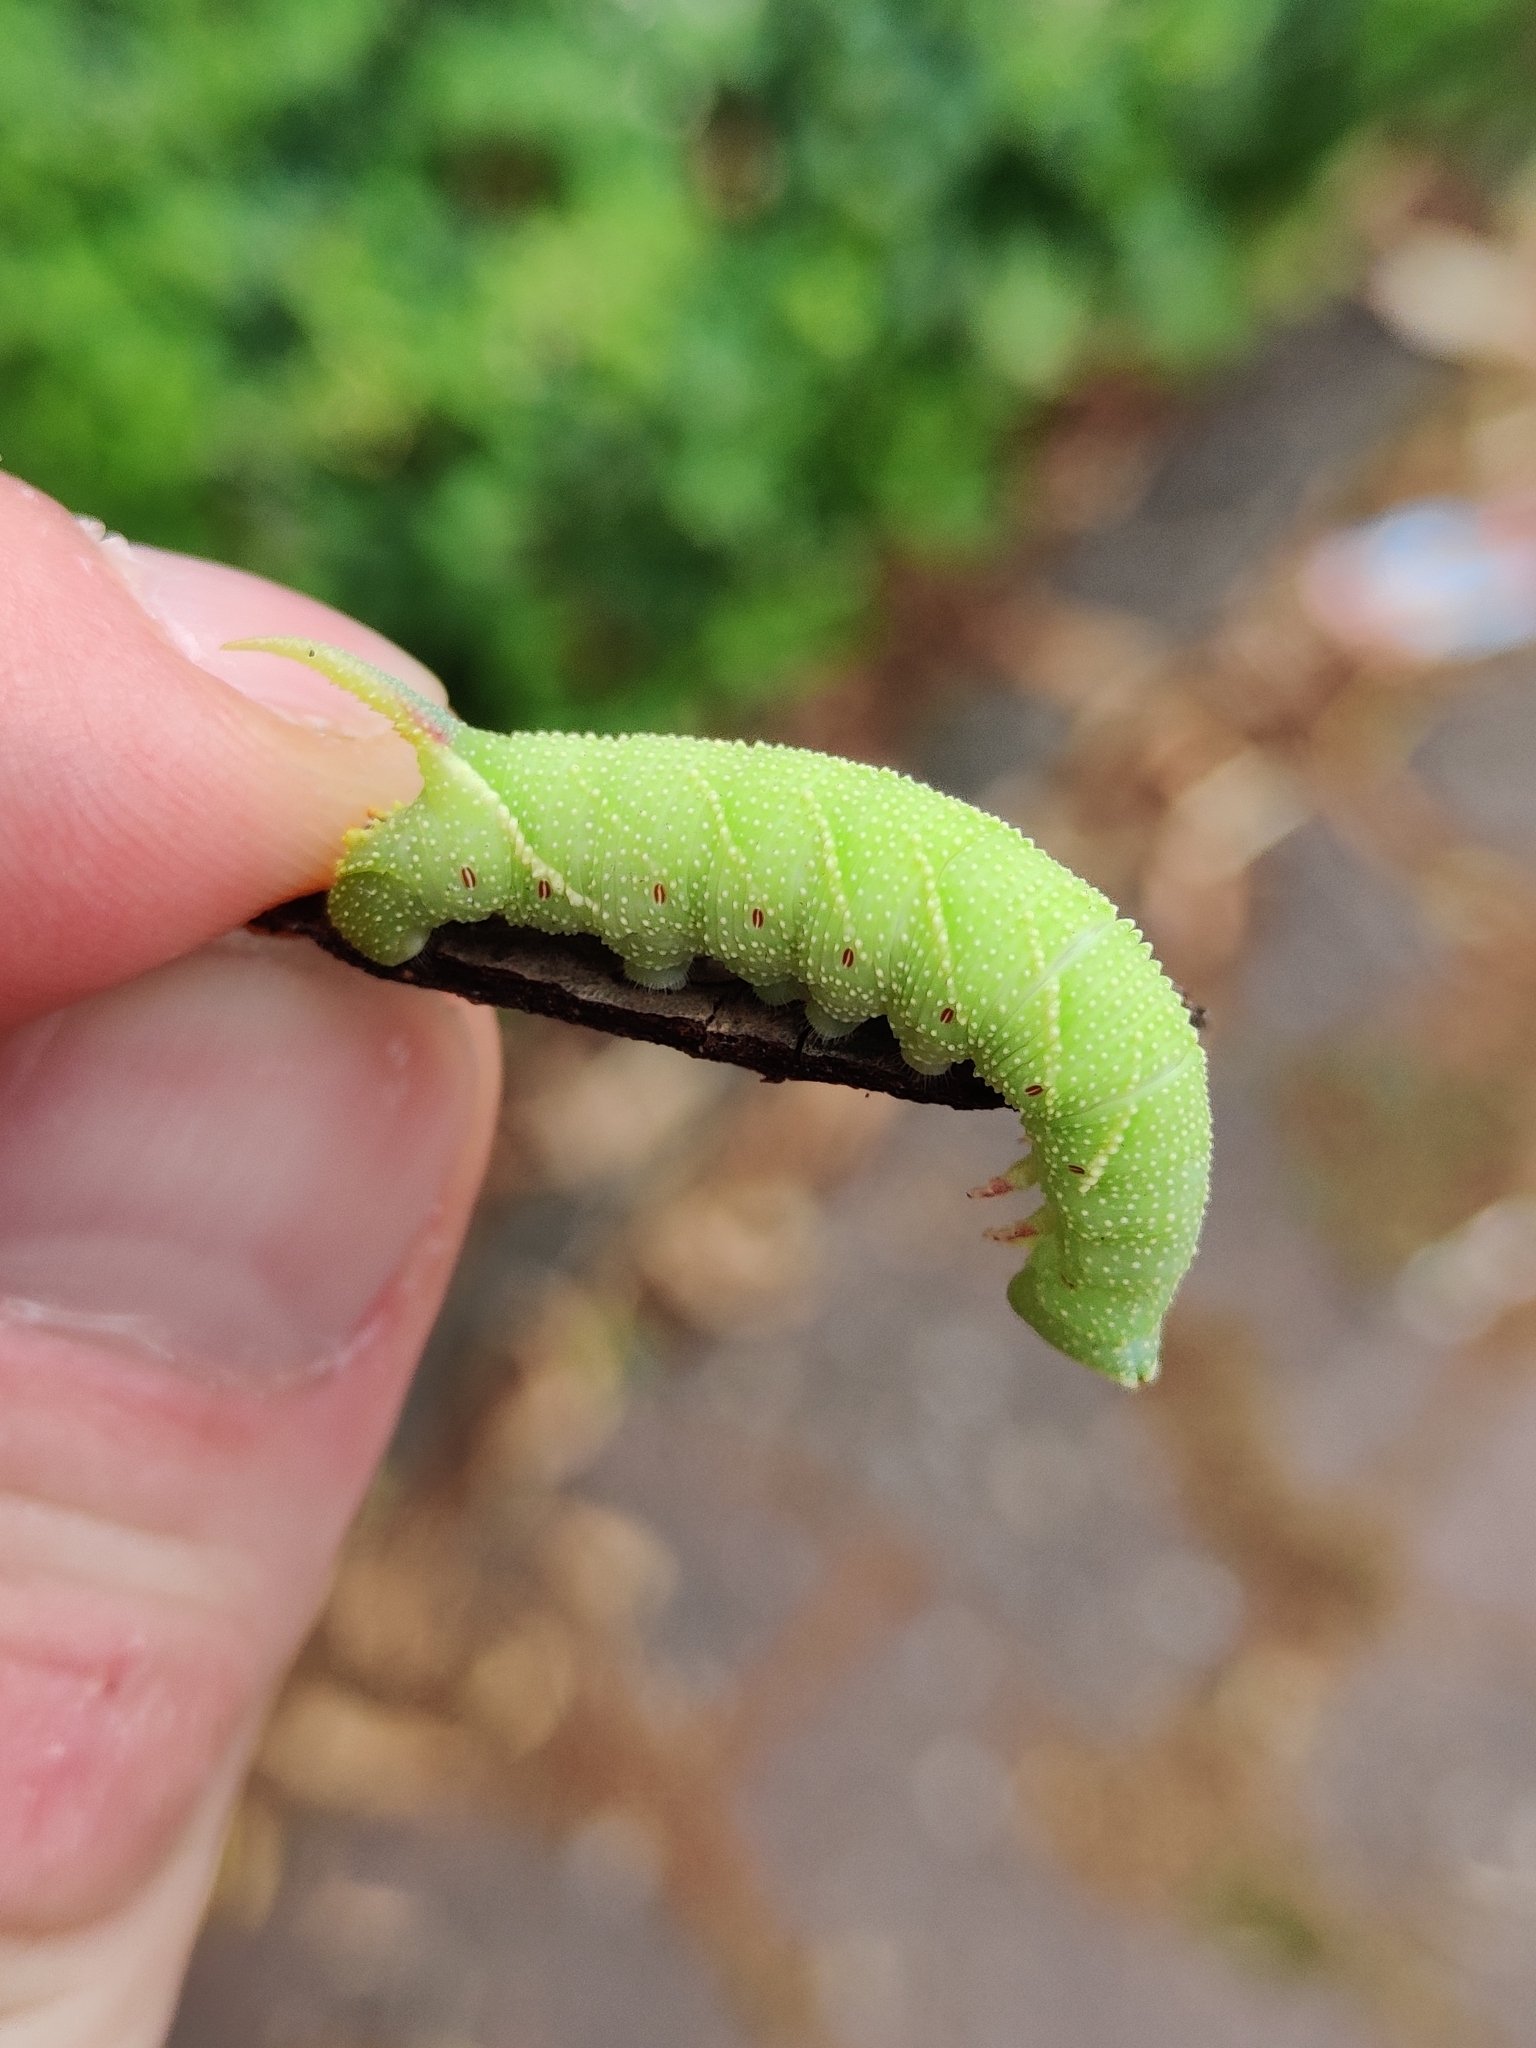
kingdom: Animalia
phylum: Arthropoda
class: Insecta
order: Lepidoptera
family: Sphingidae
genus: Mimas
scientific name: Mimas tiliae
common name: Lime hawk-moth
